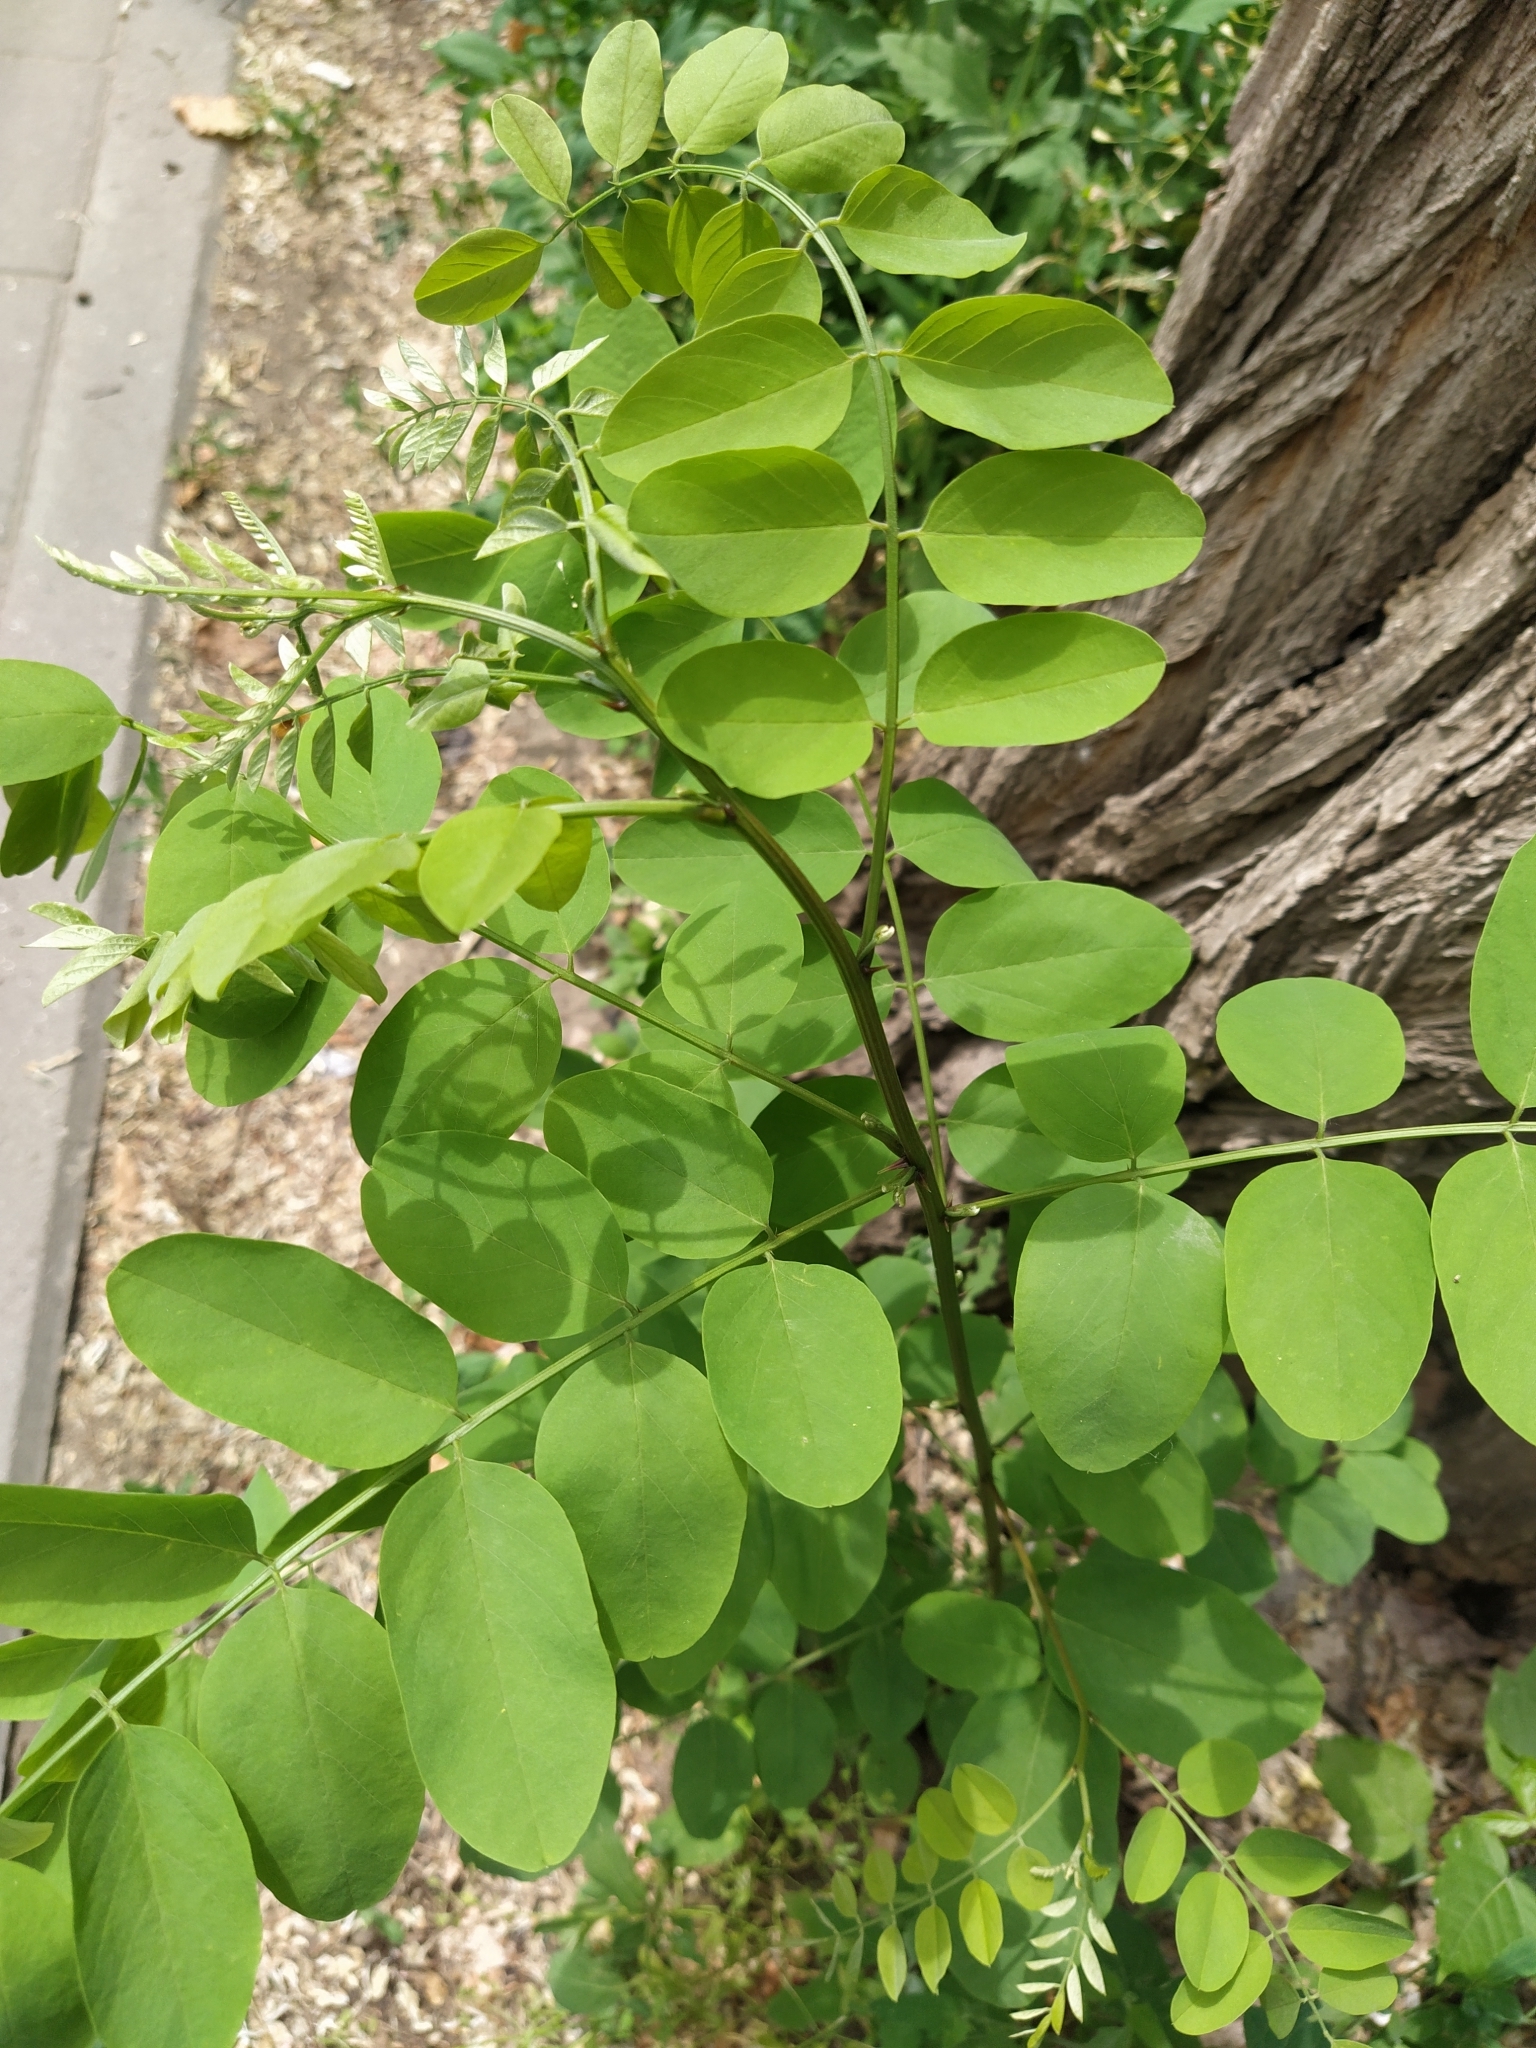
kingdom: Plantae
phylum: Tracheophyta
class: Magnoliopsida
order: Fabales
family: Fabaceae
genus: Robinia
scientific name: Robinia pseudoacacia
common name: Black locust
